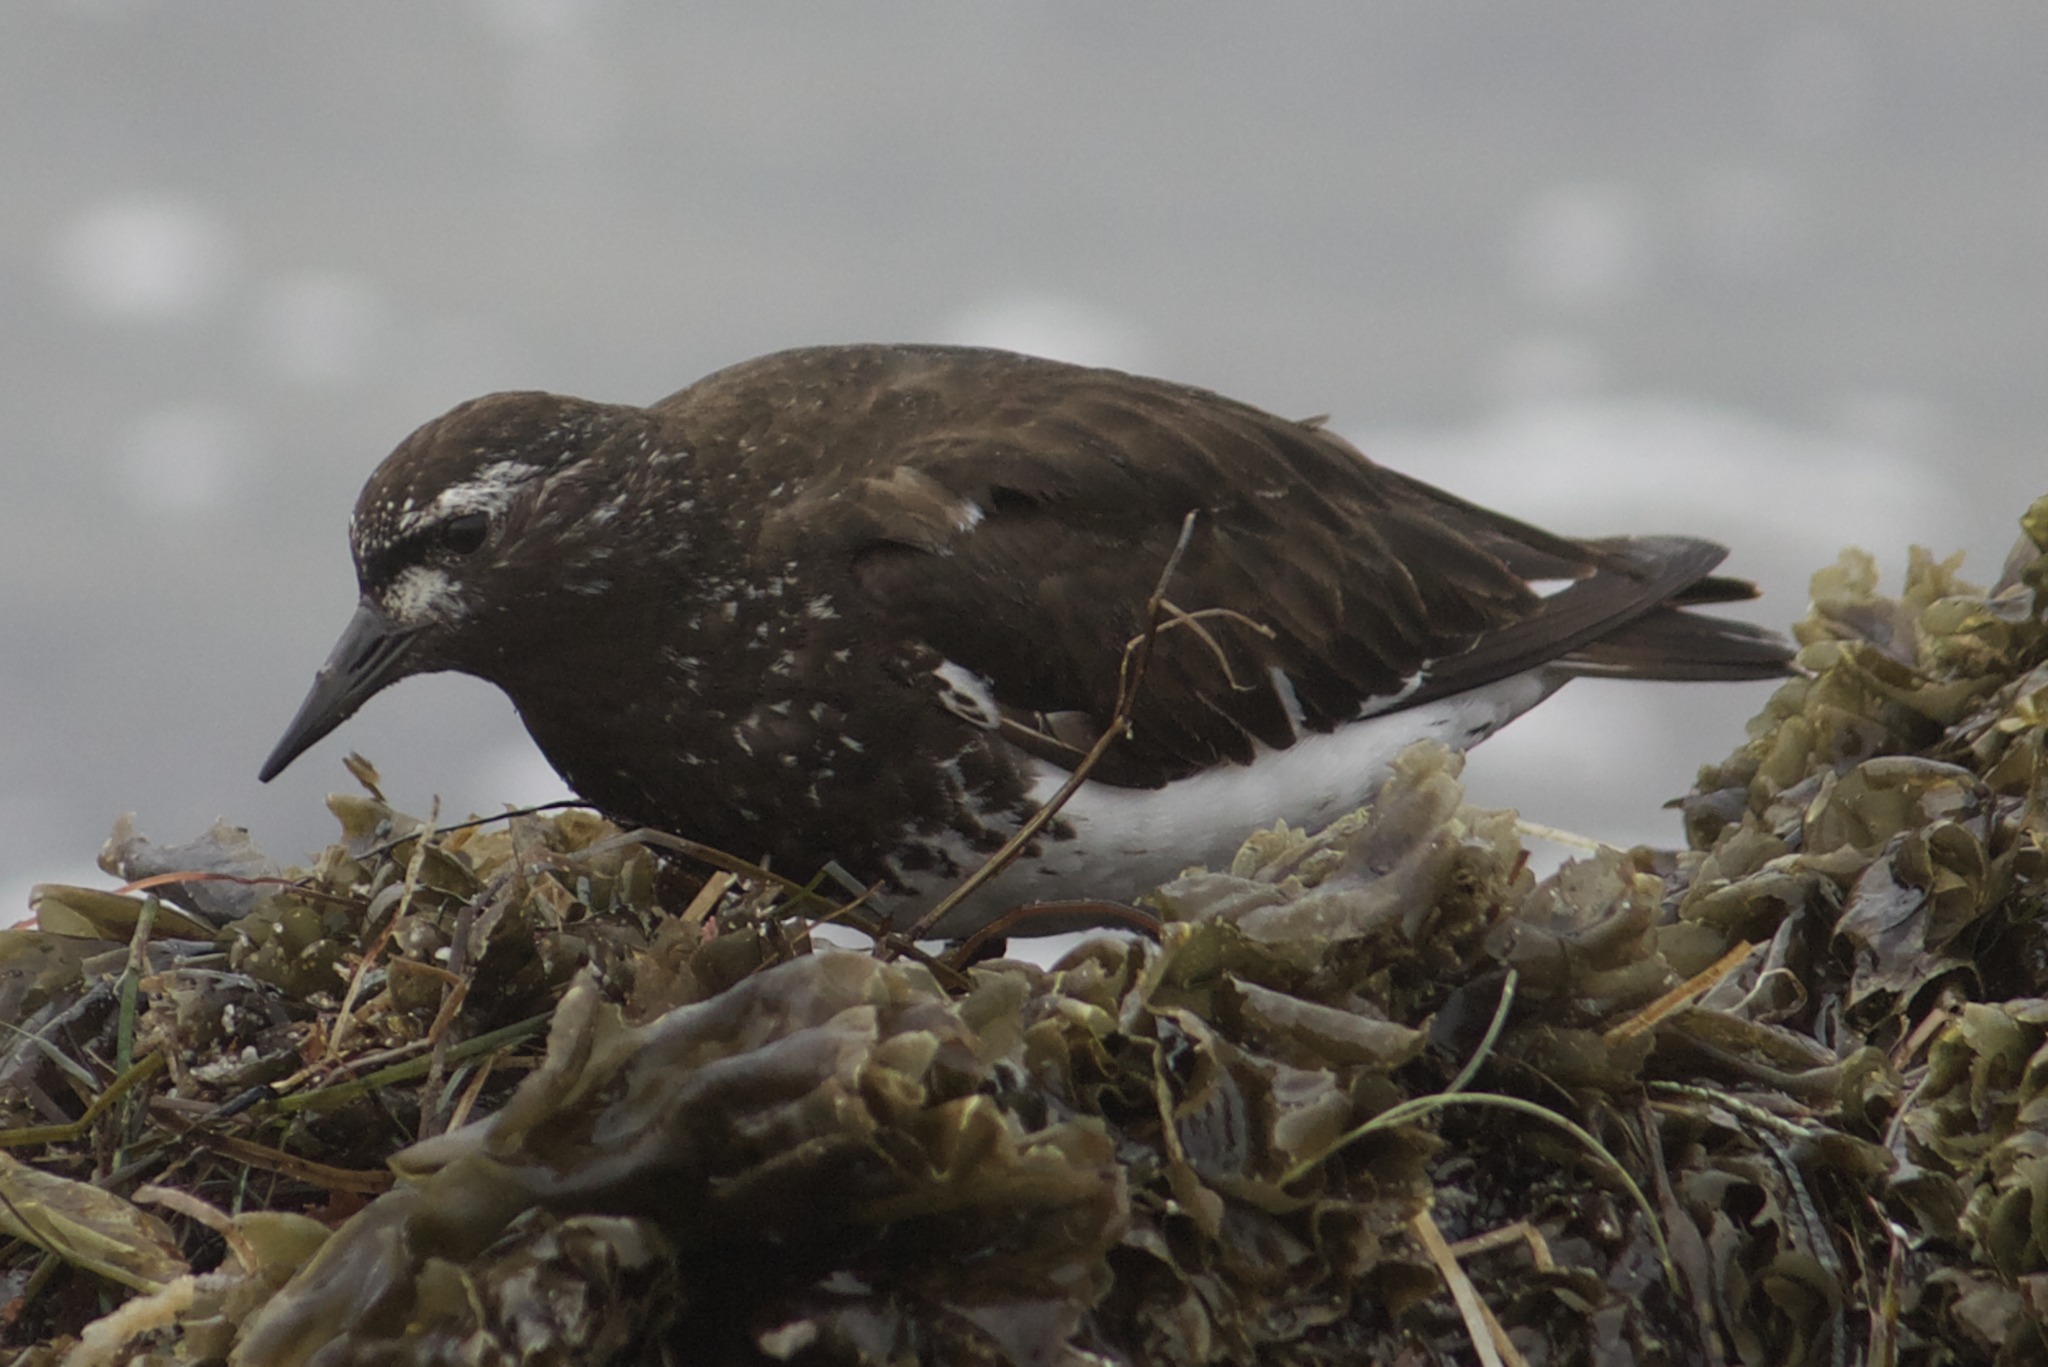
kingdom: Animalia
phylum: Chordata
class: Aves
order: Charadriiformes
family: Scolopacidae
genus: Arenaria
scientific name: Arenaria melanocephala
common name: Black turnstone
